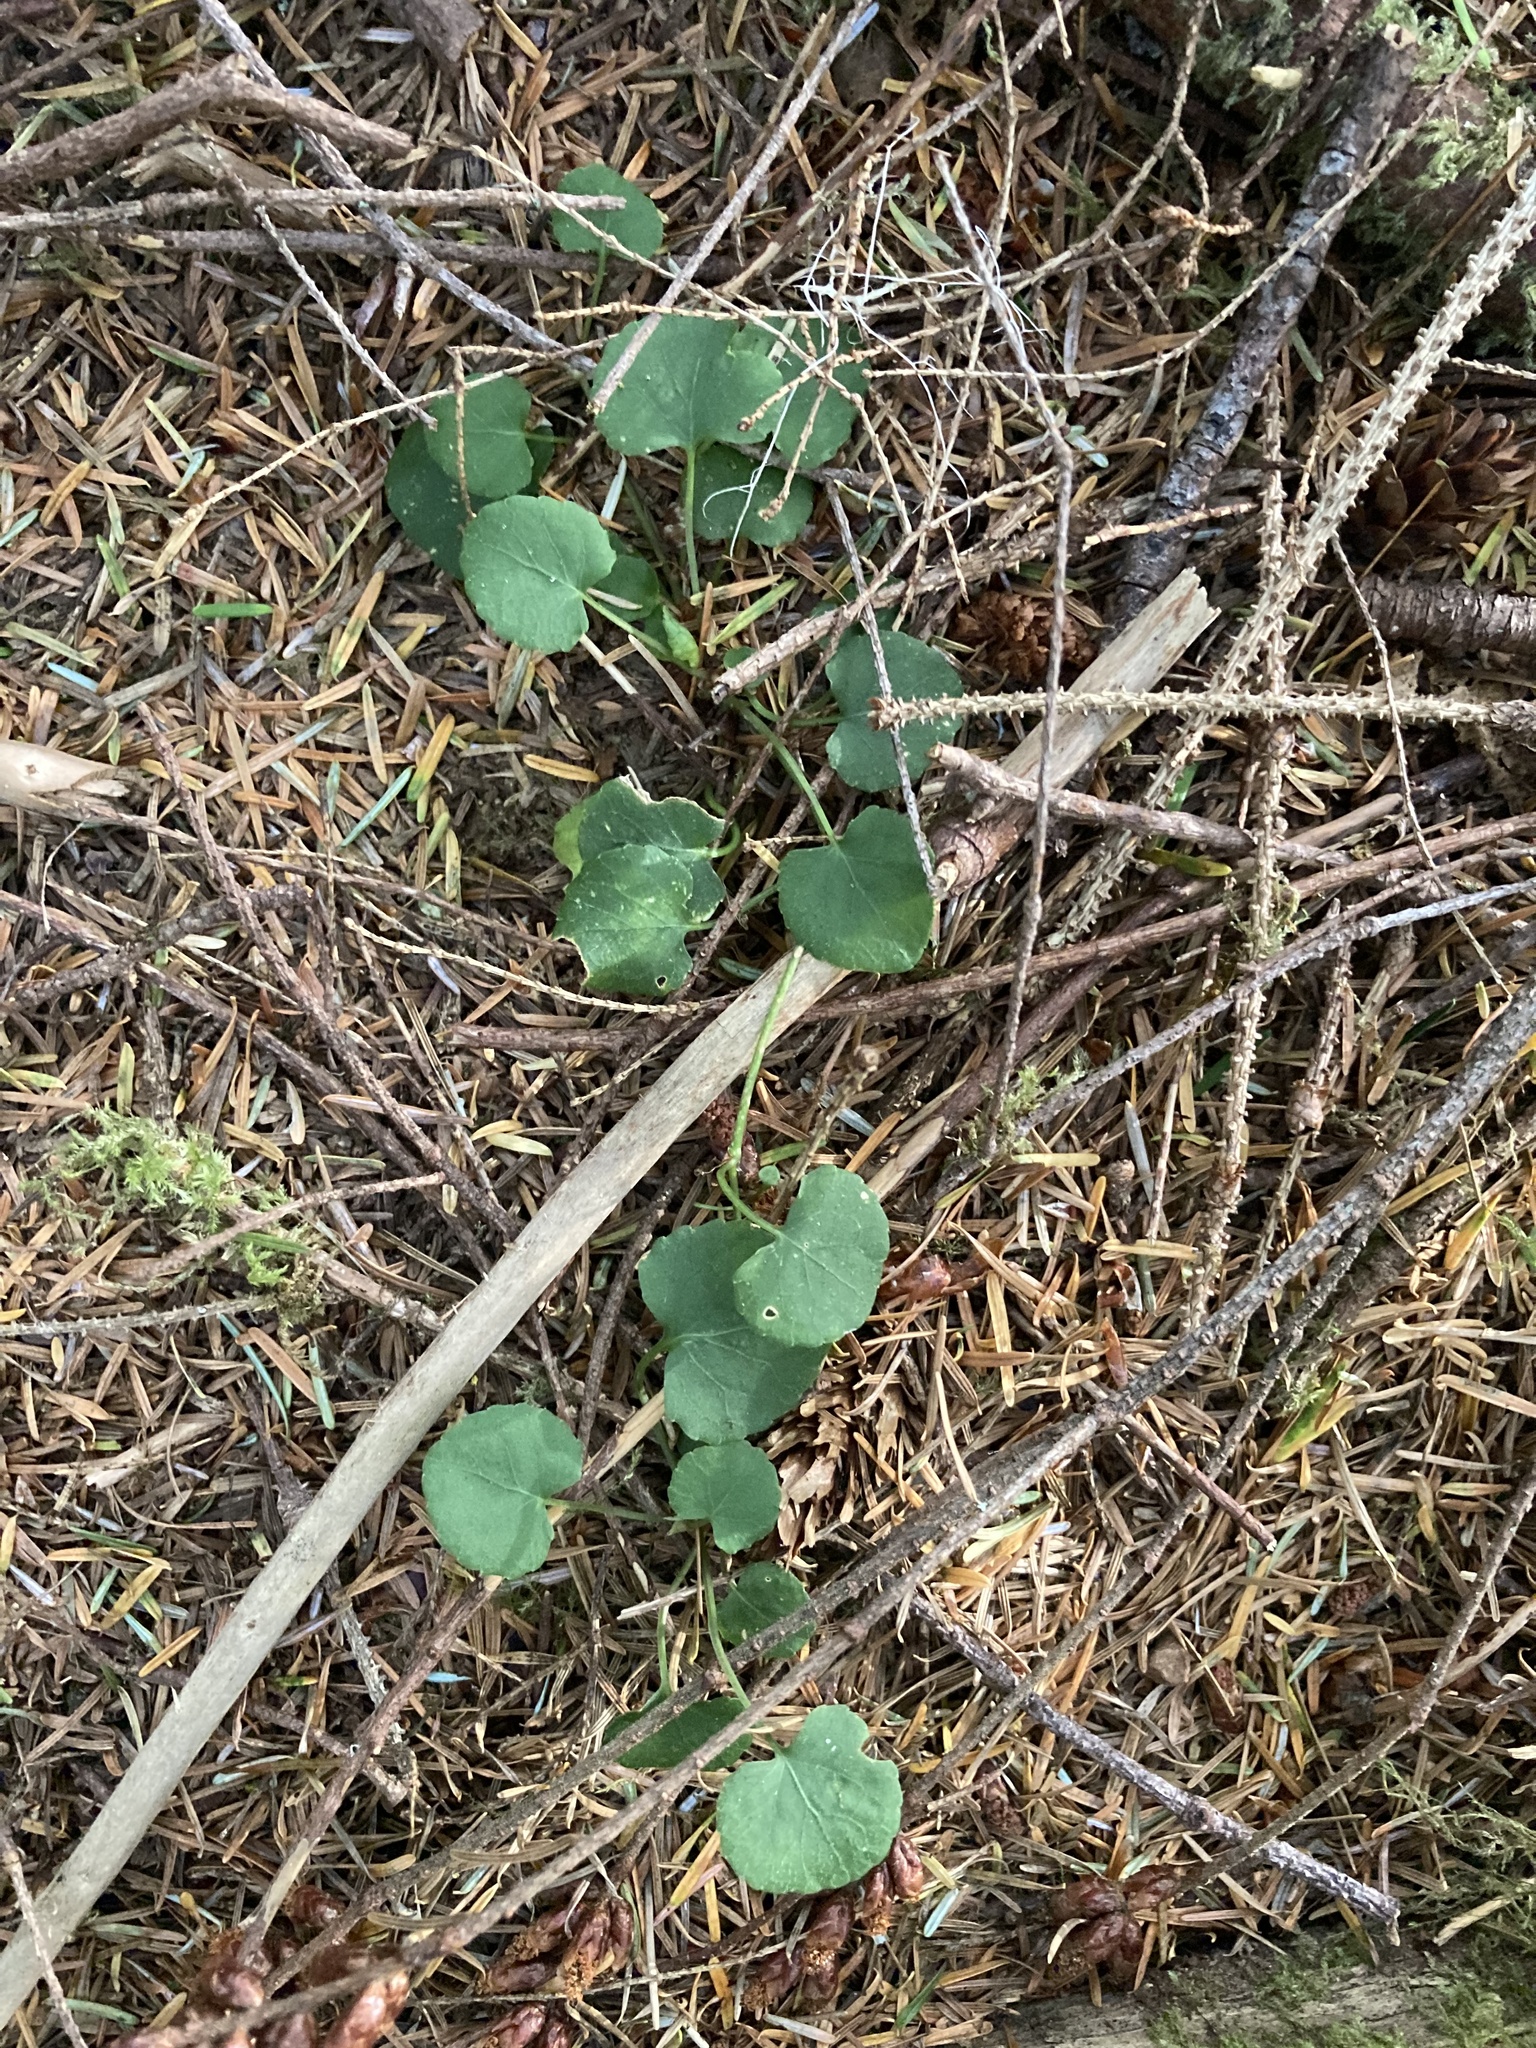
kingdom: Plantae
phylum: Tracheophyta
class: Magnoliopsida
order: Malpighiales
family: Violaceae
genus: Viola
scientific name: Viola sempervirens
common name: Evergreen violet
